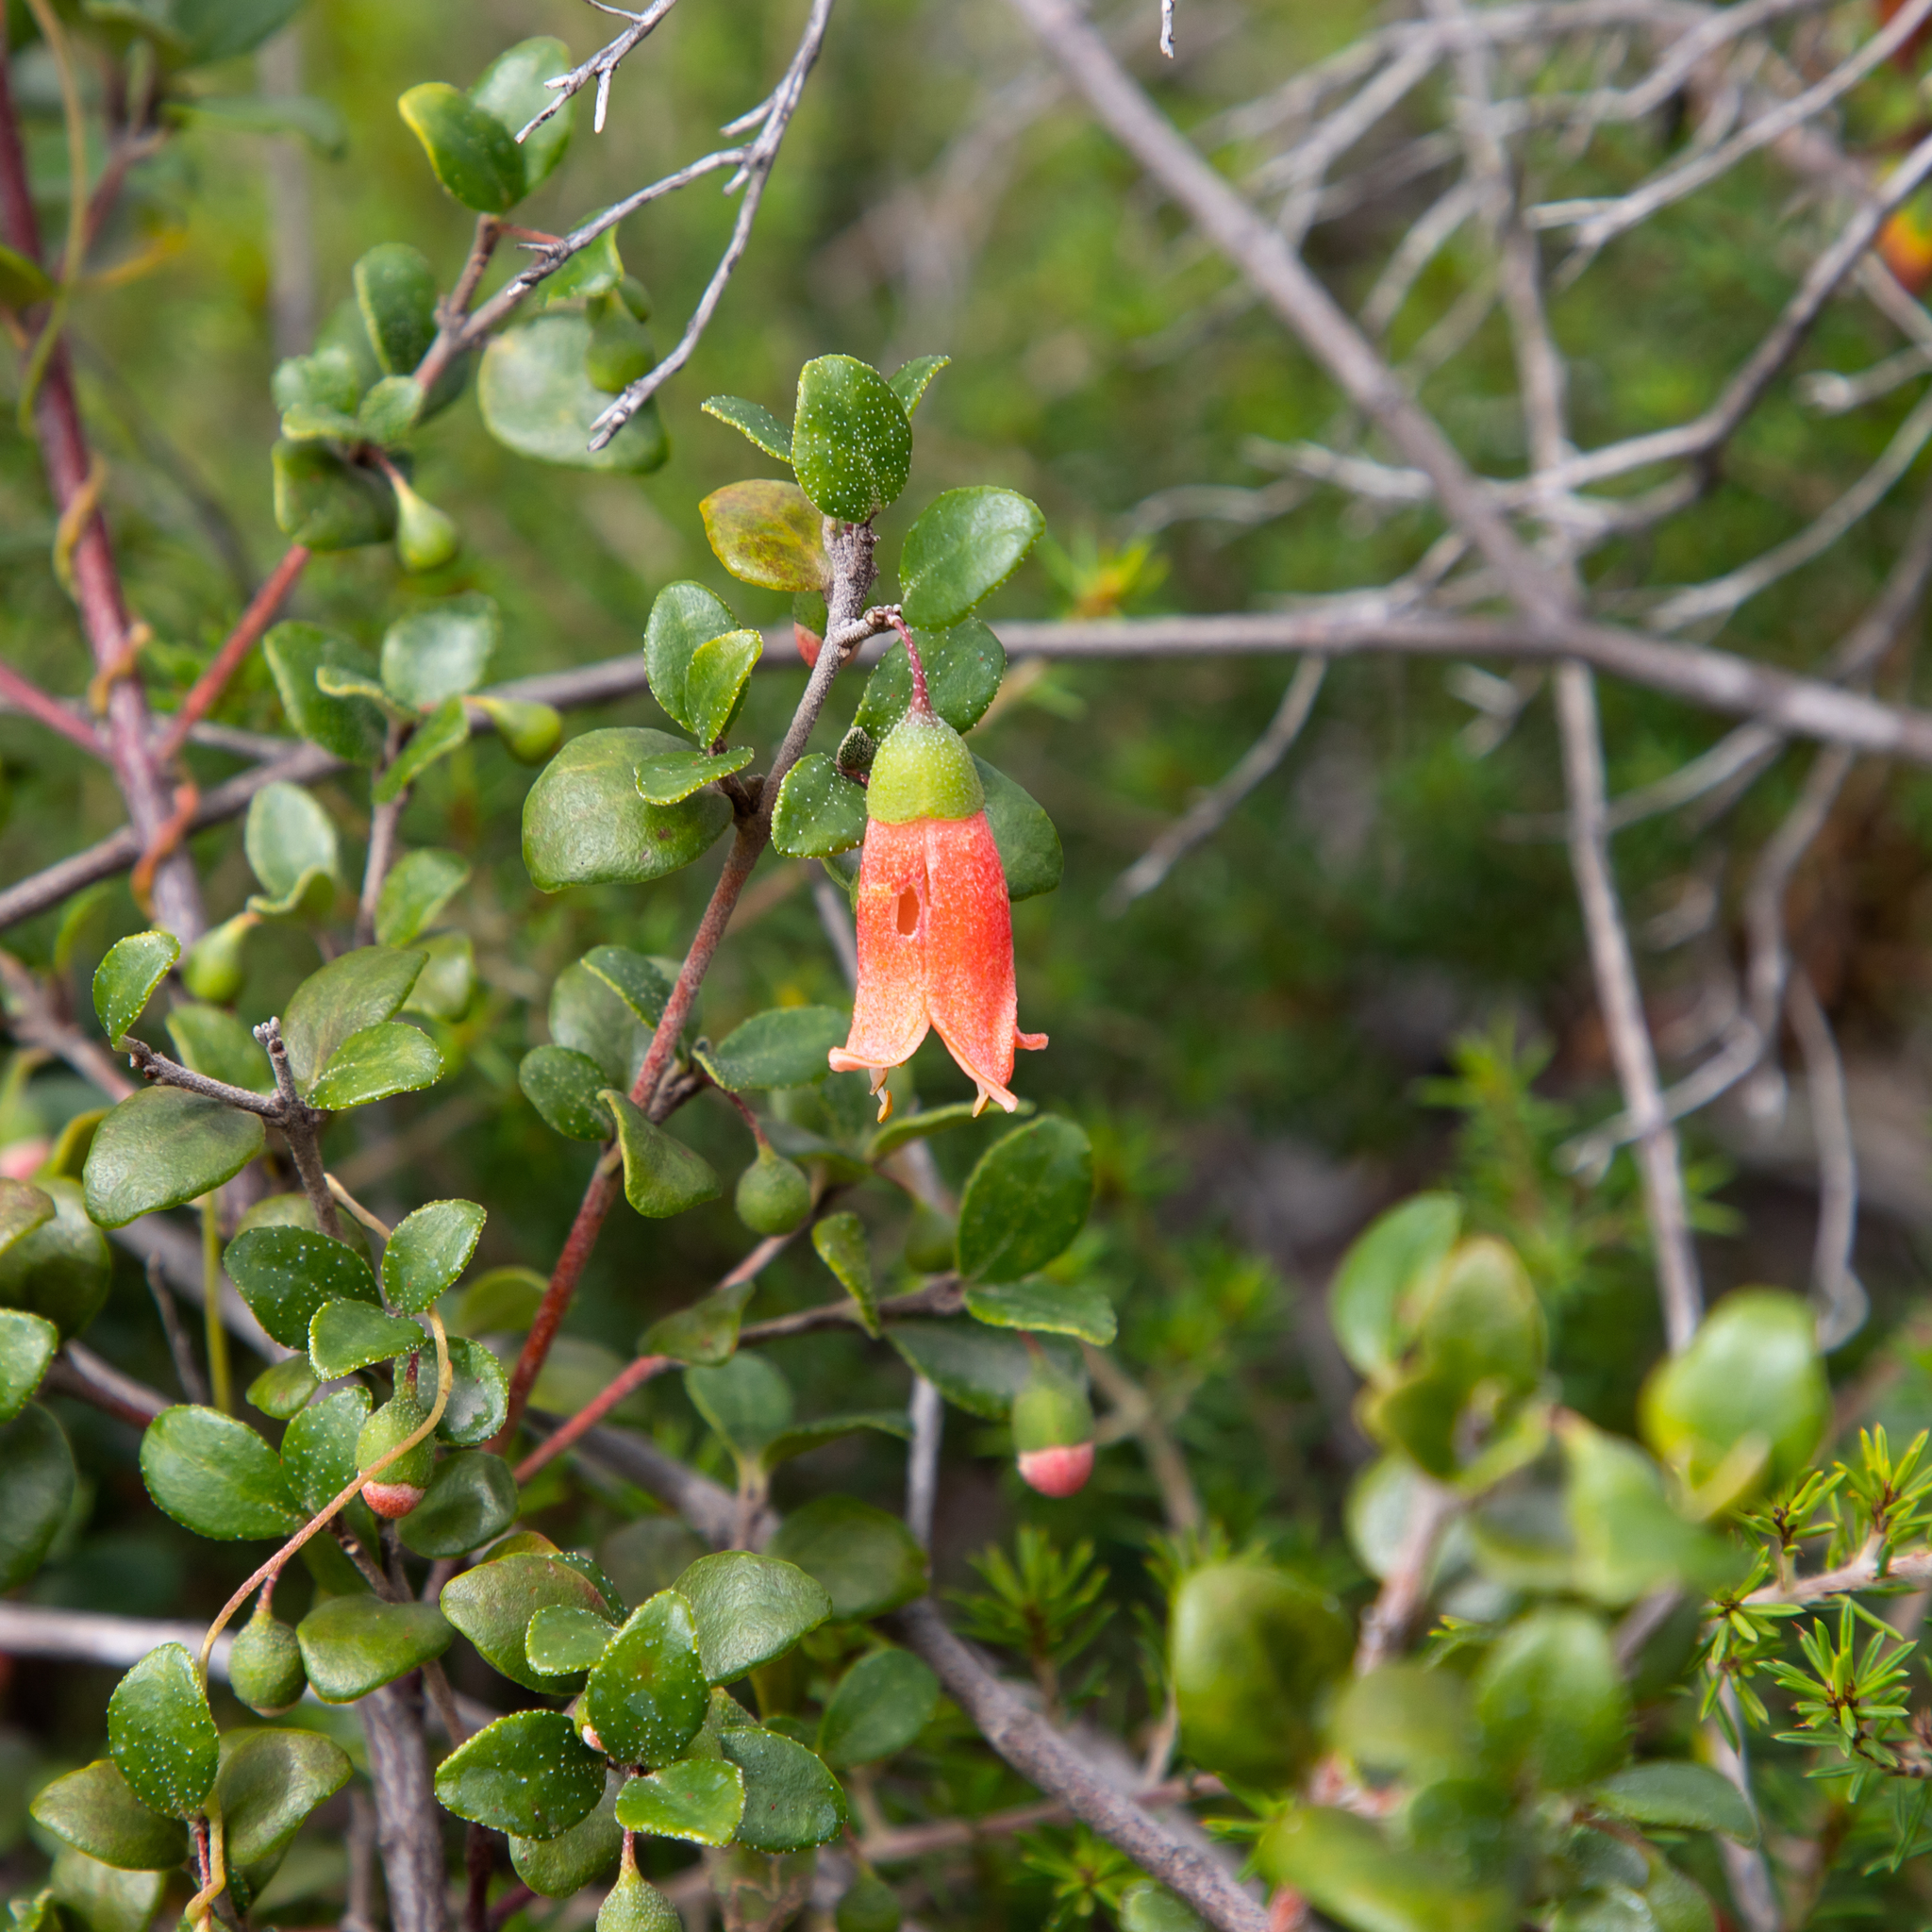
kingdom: Plantae
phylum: Tracheophyta
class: Magnoliopsida
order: Sapindales
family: Rutaceae
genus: Correa
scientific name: Correa pulchella
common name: Salmon correa
